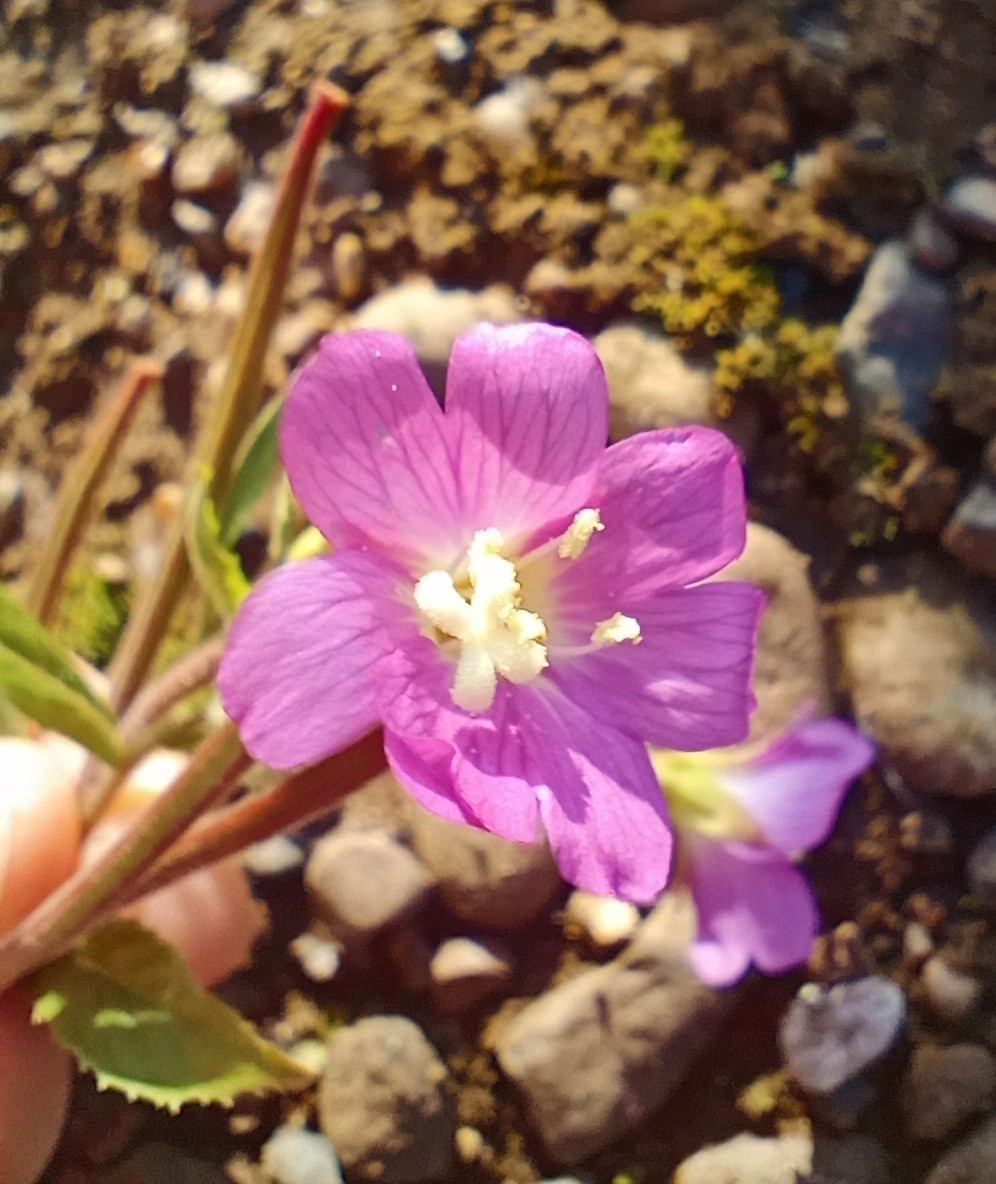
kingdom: Plantae
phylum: Tracheophyta
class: Magnoliopsida
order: Myrtales
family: Onagraceae
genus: Epilobium
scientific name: Epilobium hirsutum
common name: Great willowherb
